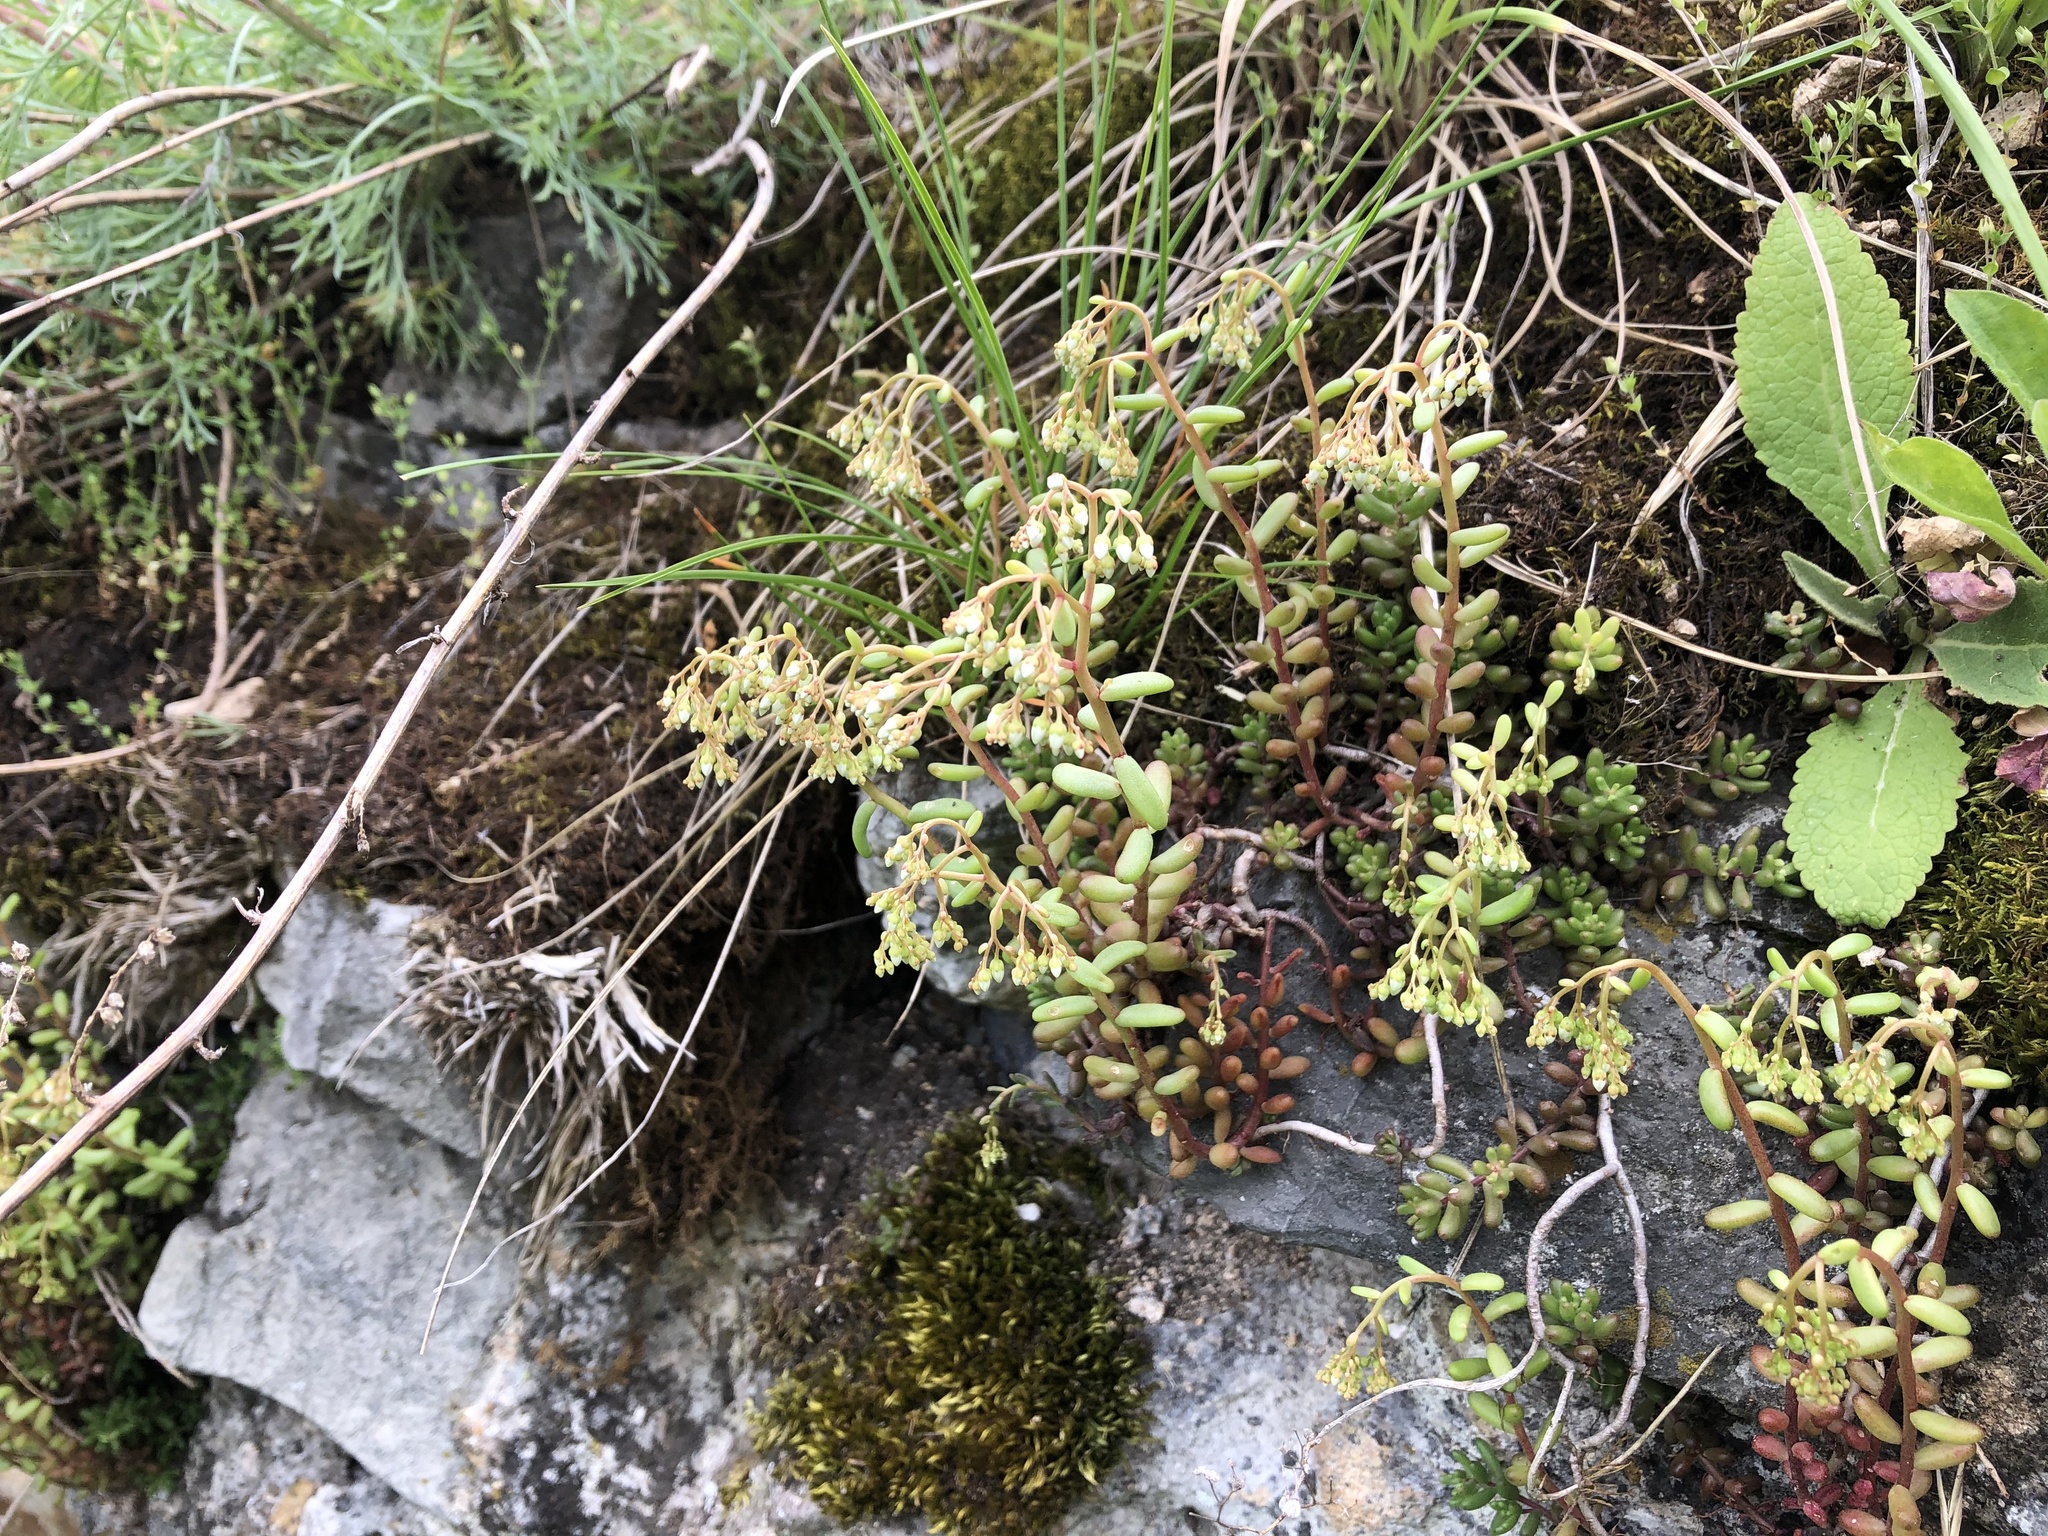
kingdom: Plantae
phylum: Tracheophyta
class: Magnoliopsida
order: Saxifragales
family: Crassulaceae
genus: Sedum
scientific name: Sedum album
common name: White stonecrop
